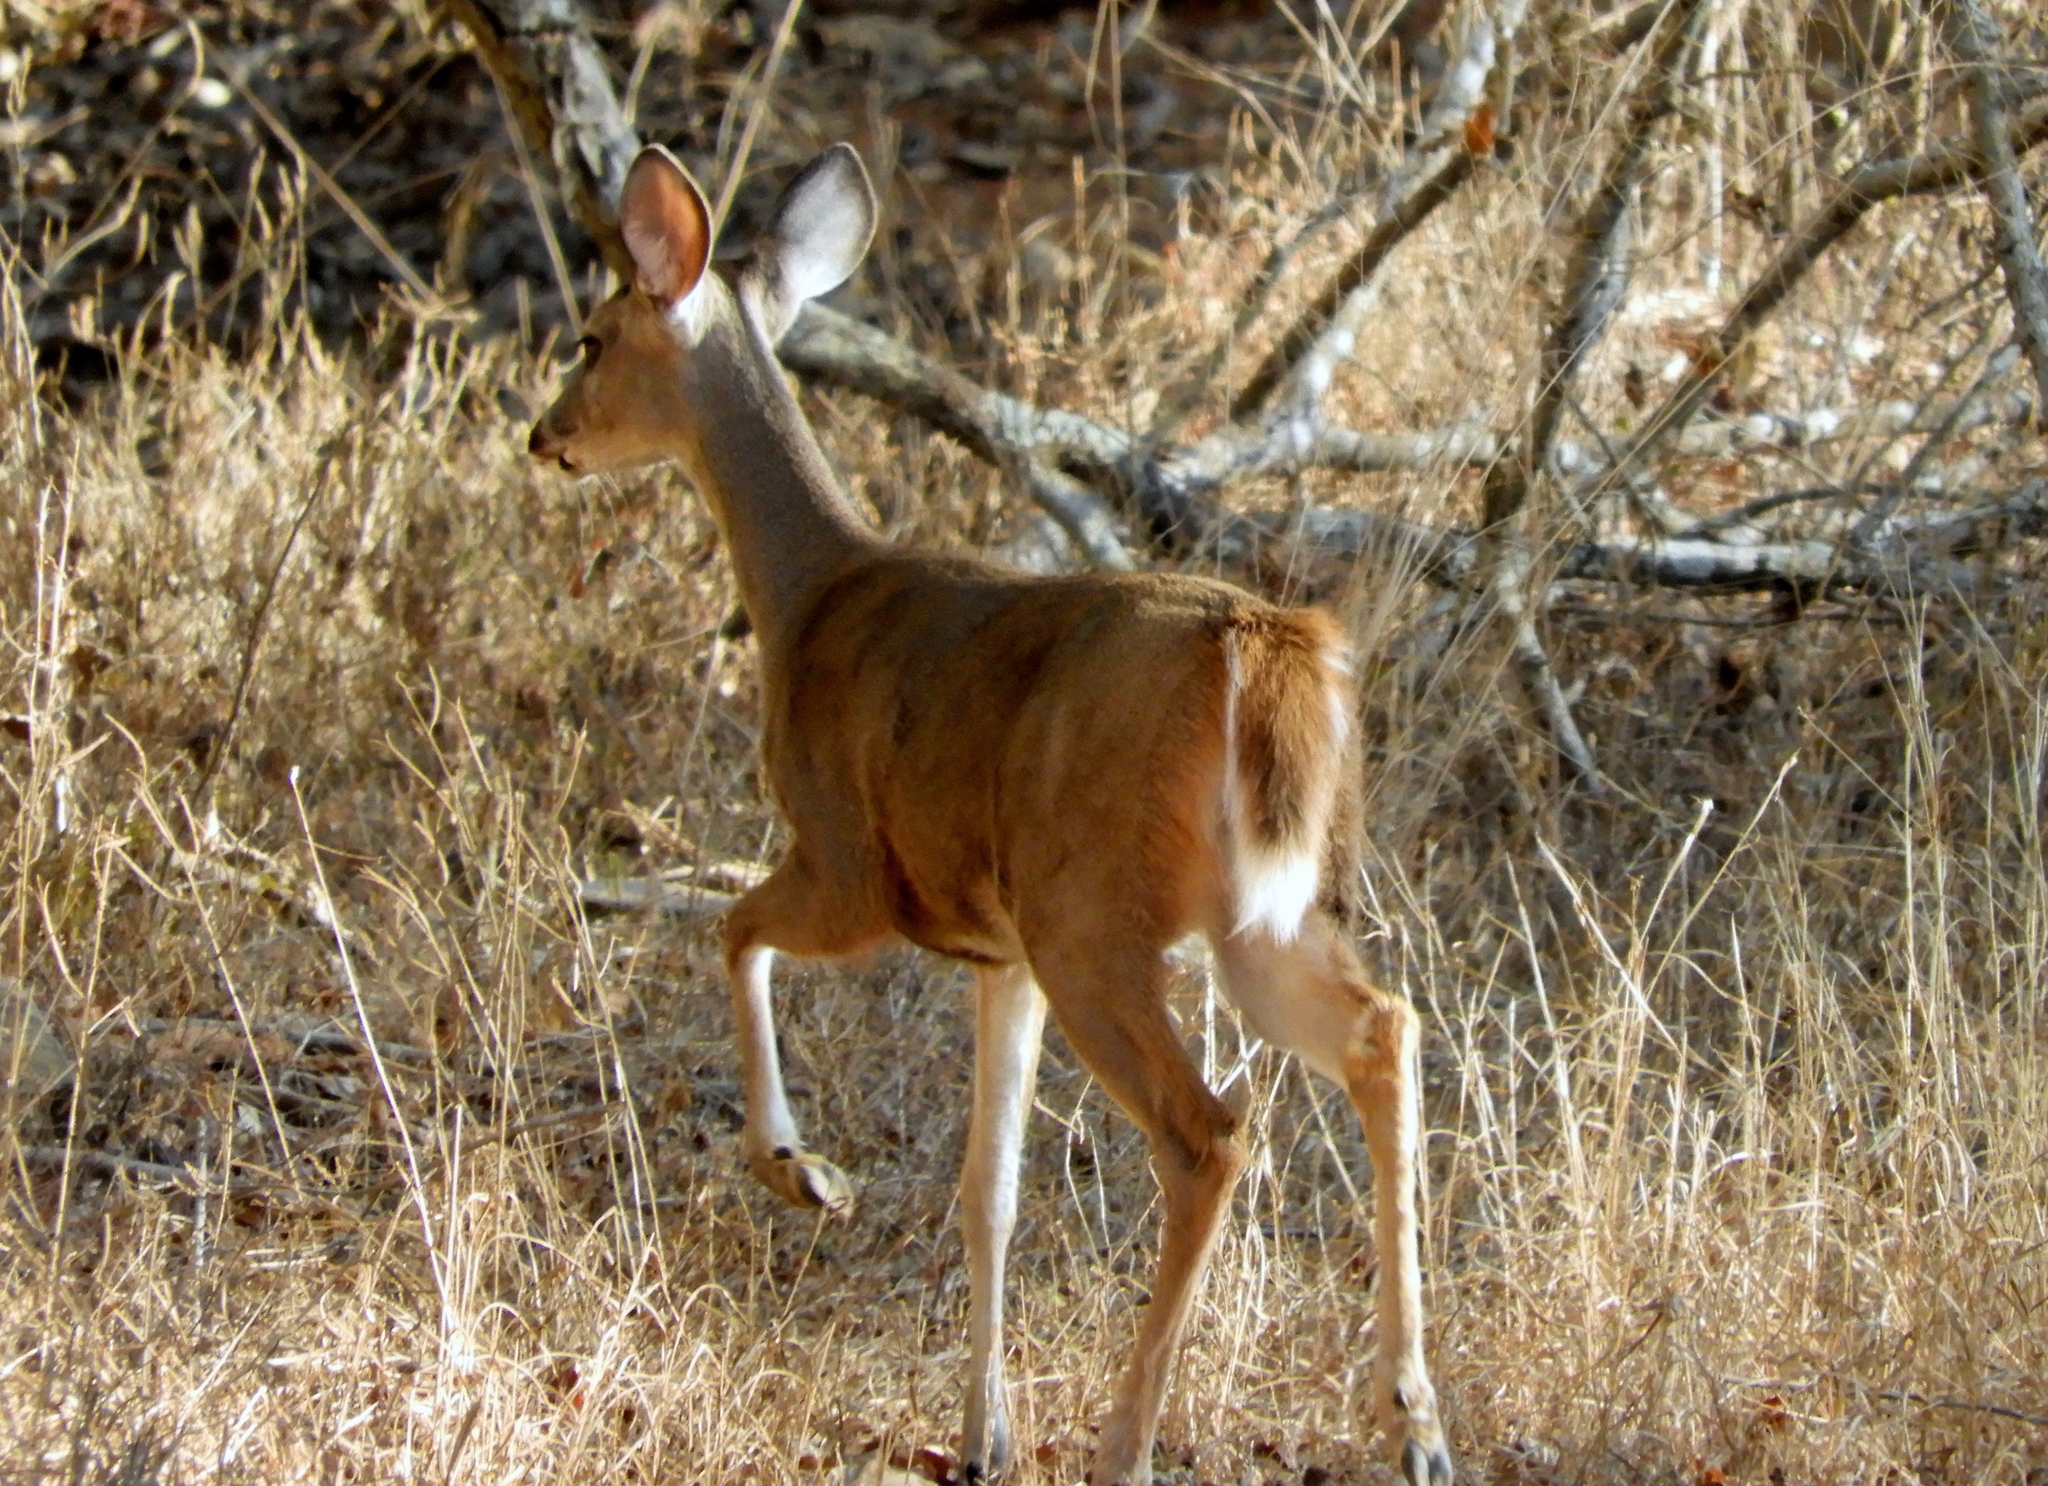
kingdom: Animalia
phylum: Chordata
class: Mammalia
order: Artiodactyla
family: Cervidae
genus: Odocoileus
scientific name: Odocoileus virginianus
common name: White-tailed deer
